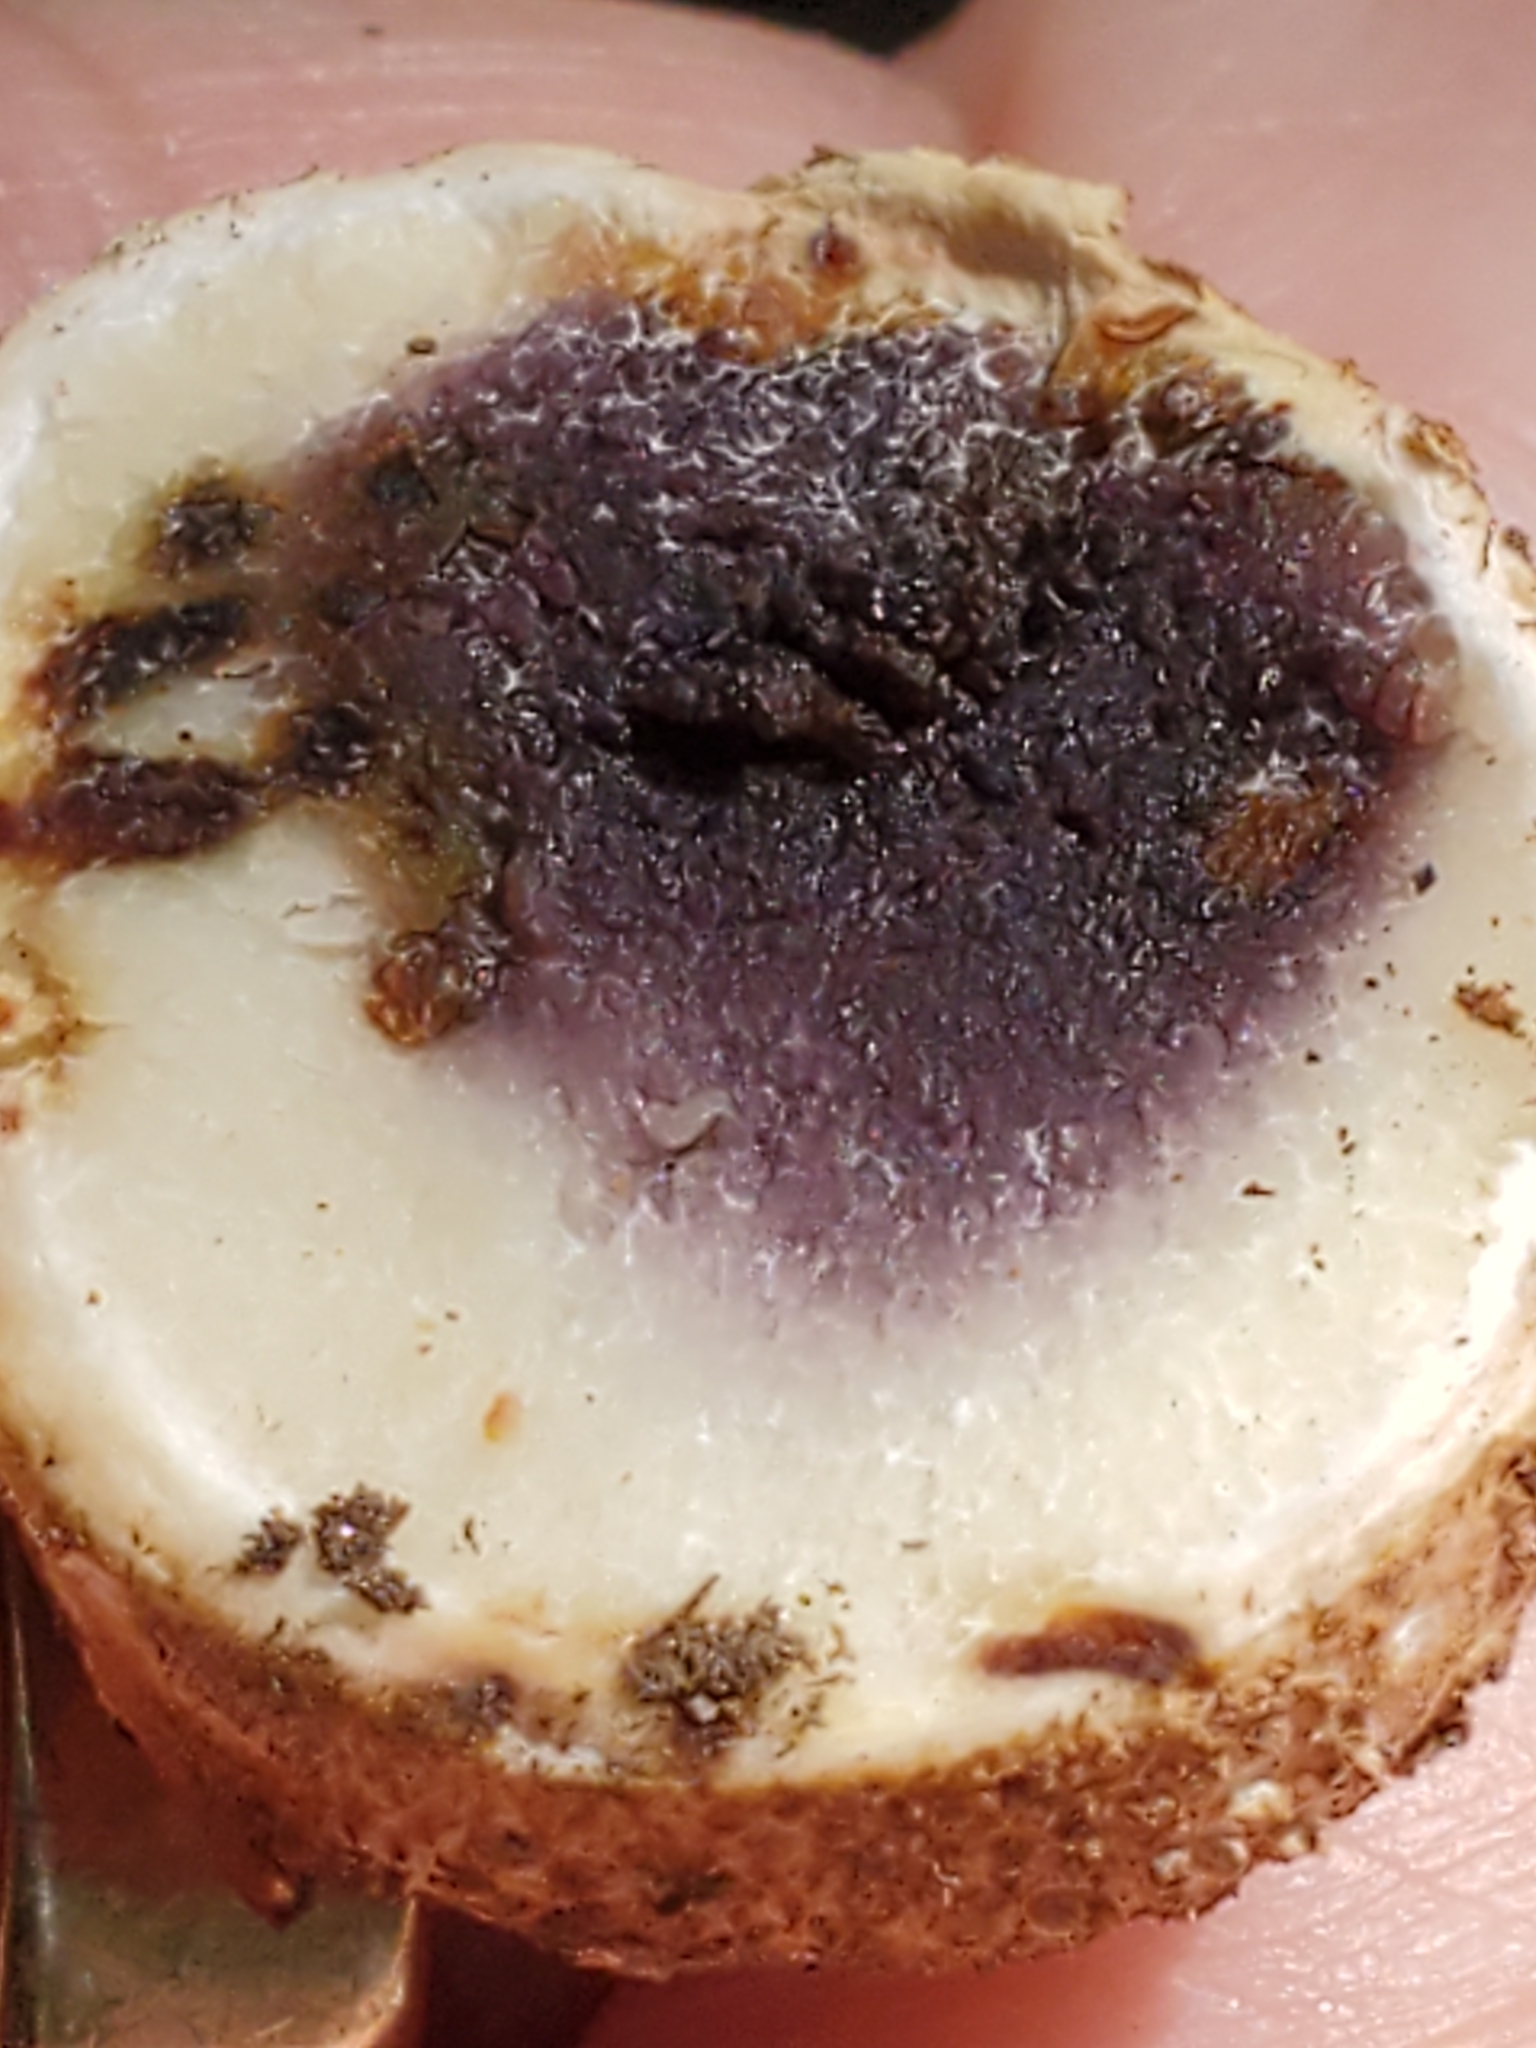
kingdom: Fungi
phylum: Basidiomycota
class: Agaricomycetes
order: Boletales
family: Sclerodermataceae
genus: Scleroderma
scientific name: Scleroderma citrinum
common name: Common earthball
